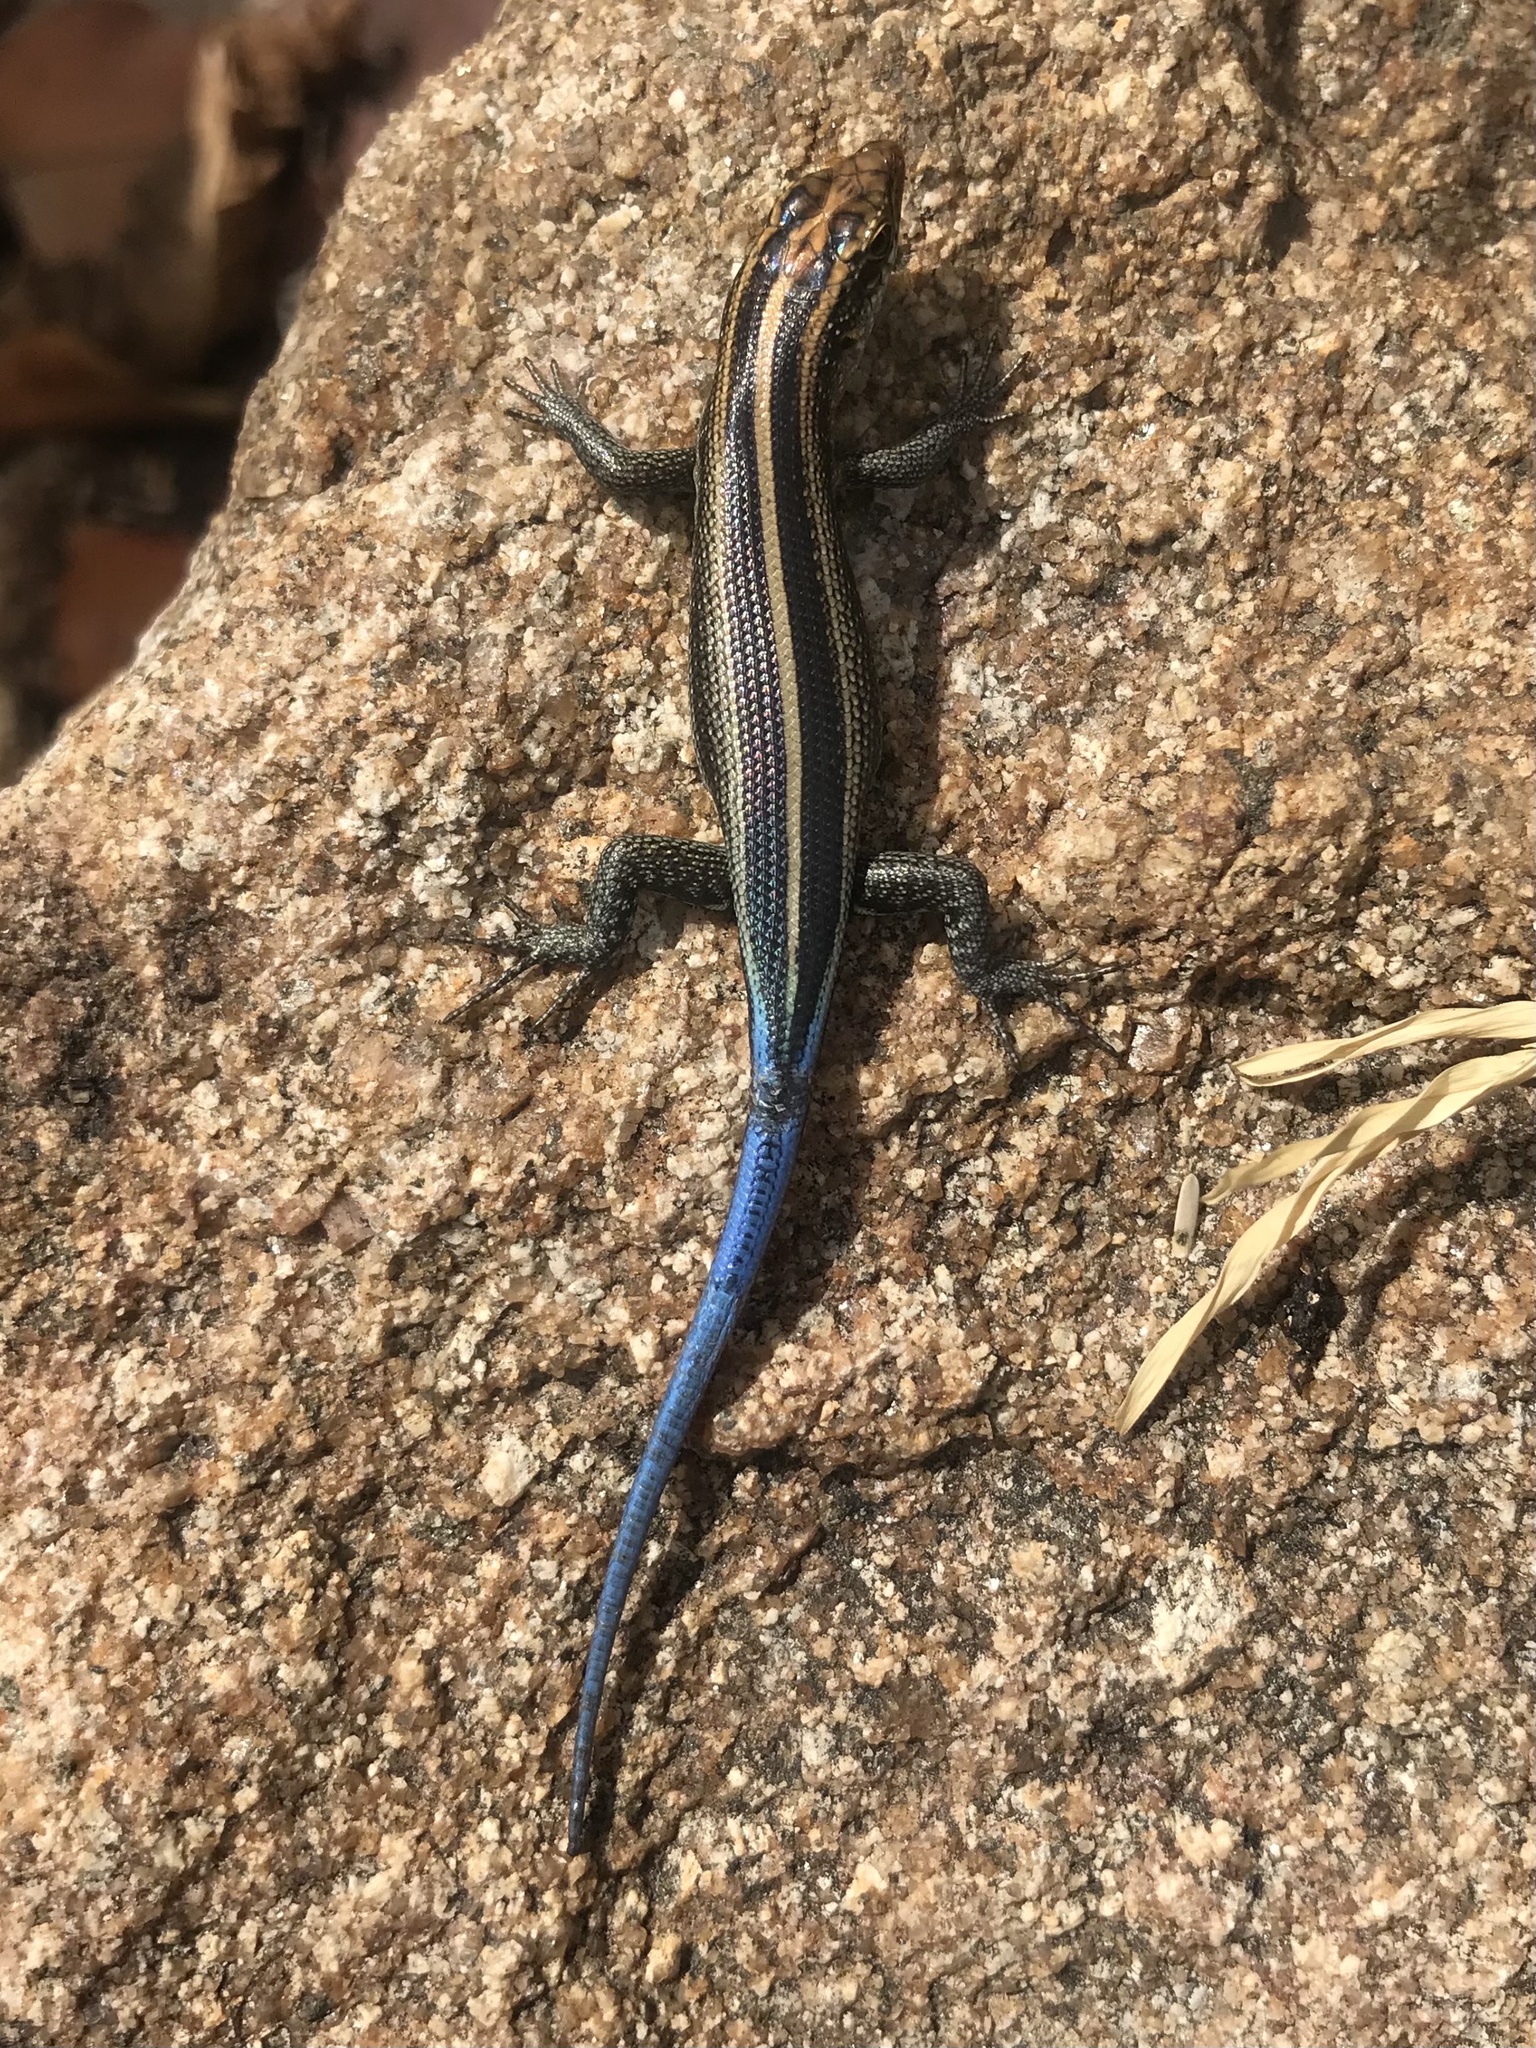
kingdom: Animalia
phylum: Chordata
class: Squamata
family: Scincidae
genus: Trachylepis
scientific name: Trachylepis margaritifera
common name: Rainbow skink
